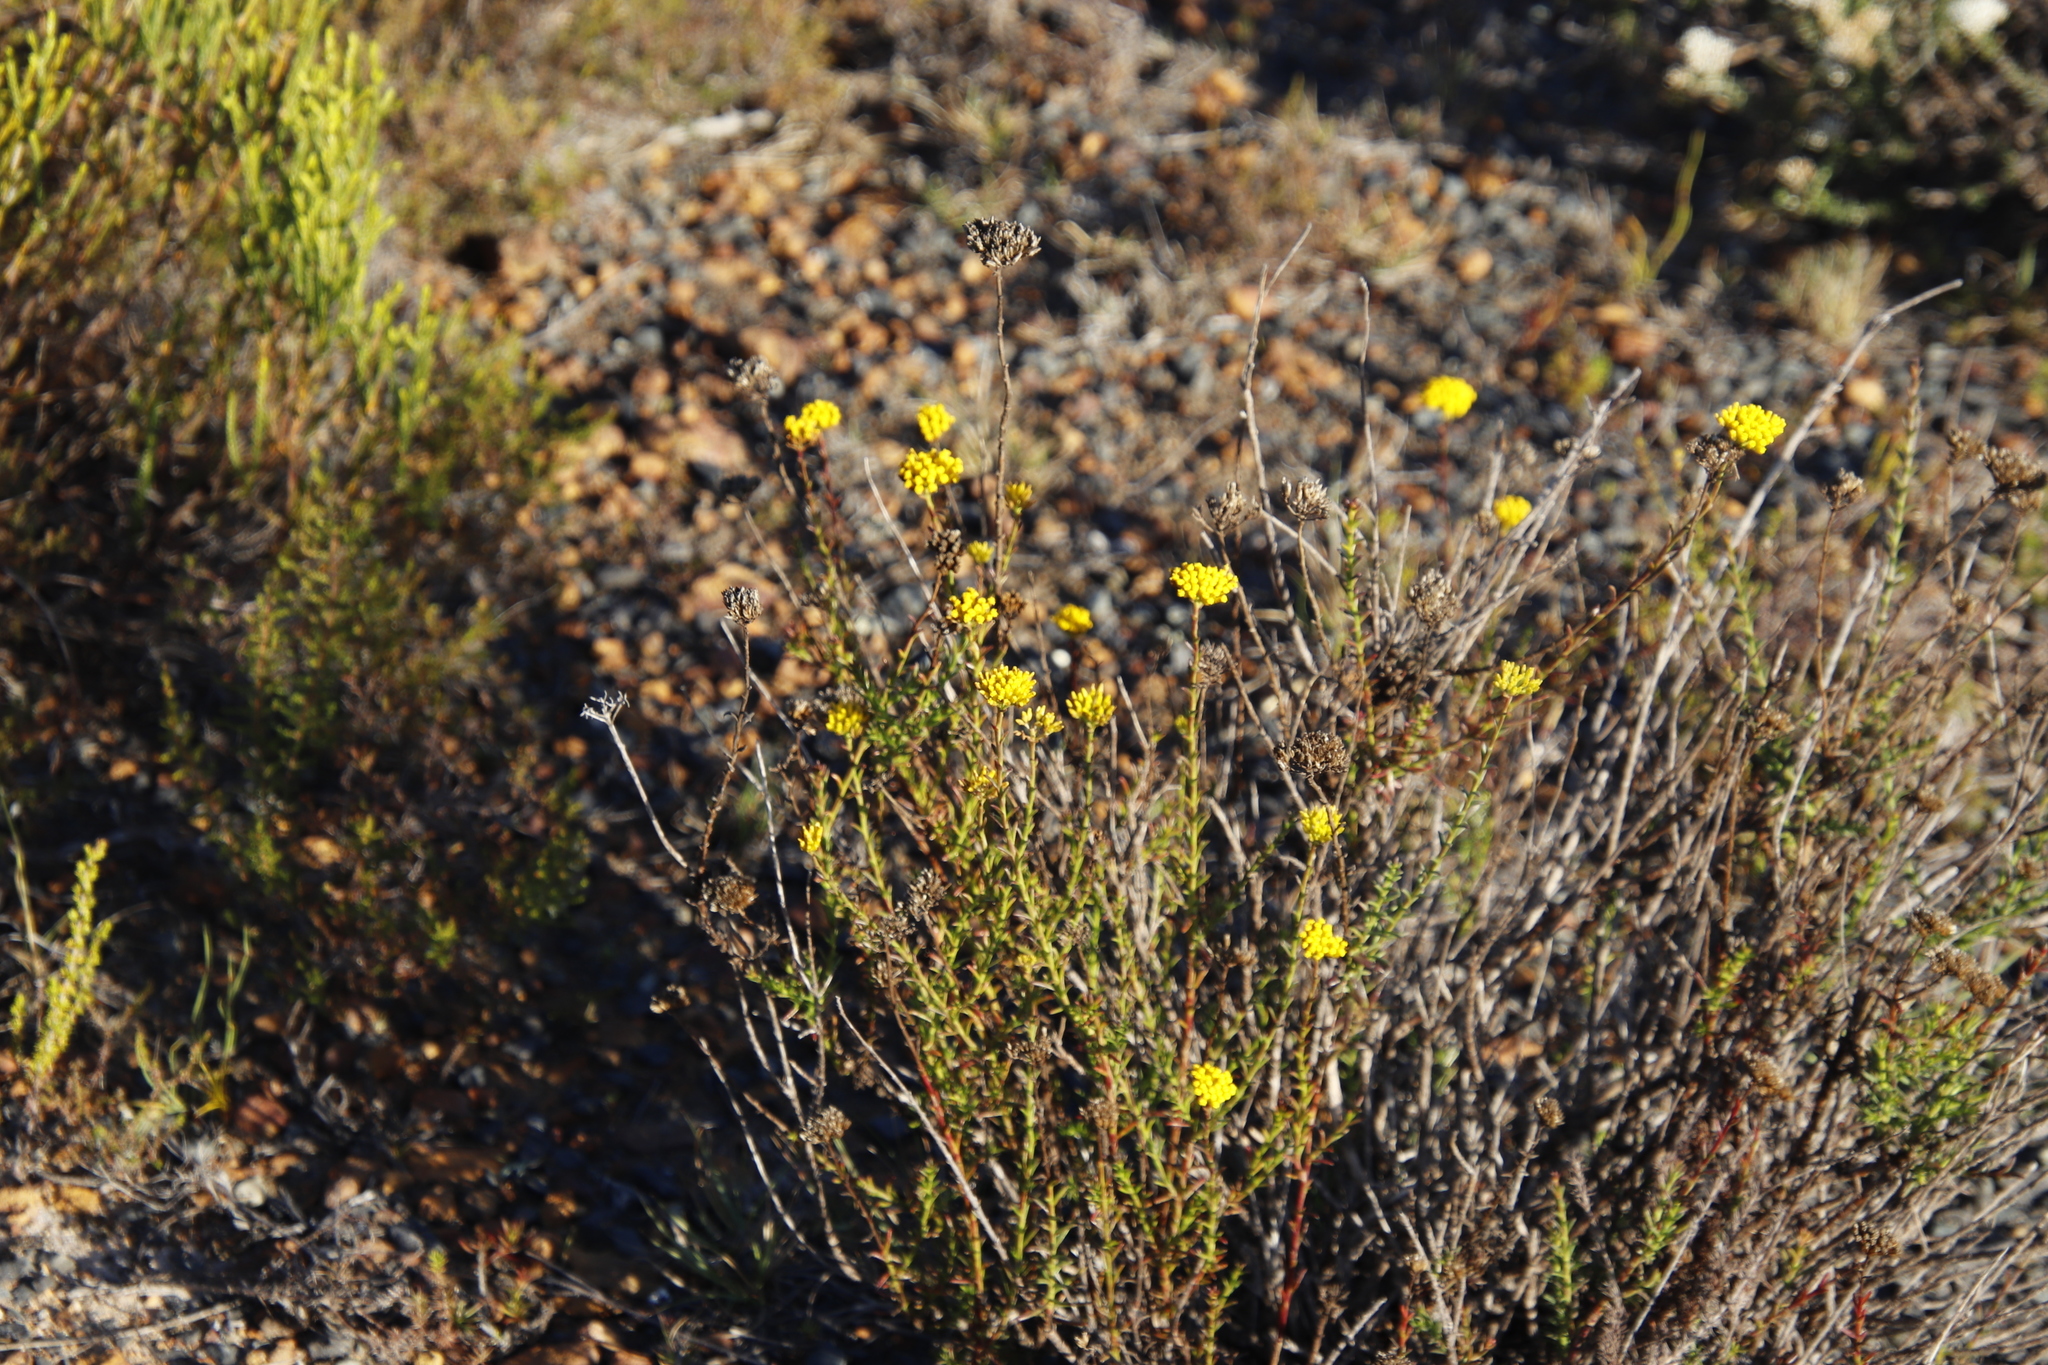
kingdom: Plantae
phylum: Tracheophyta
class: Magnoliopsida
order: Asterales
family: Asteraceae
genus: Athanasia
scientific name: Athanasia juncea
